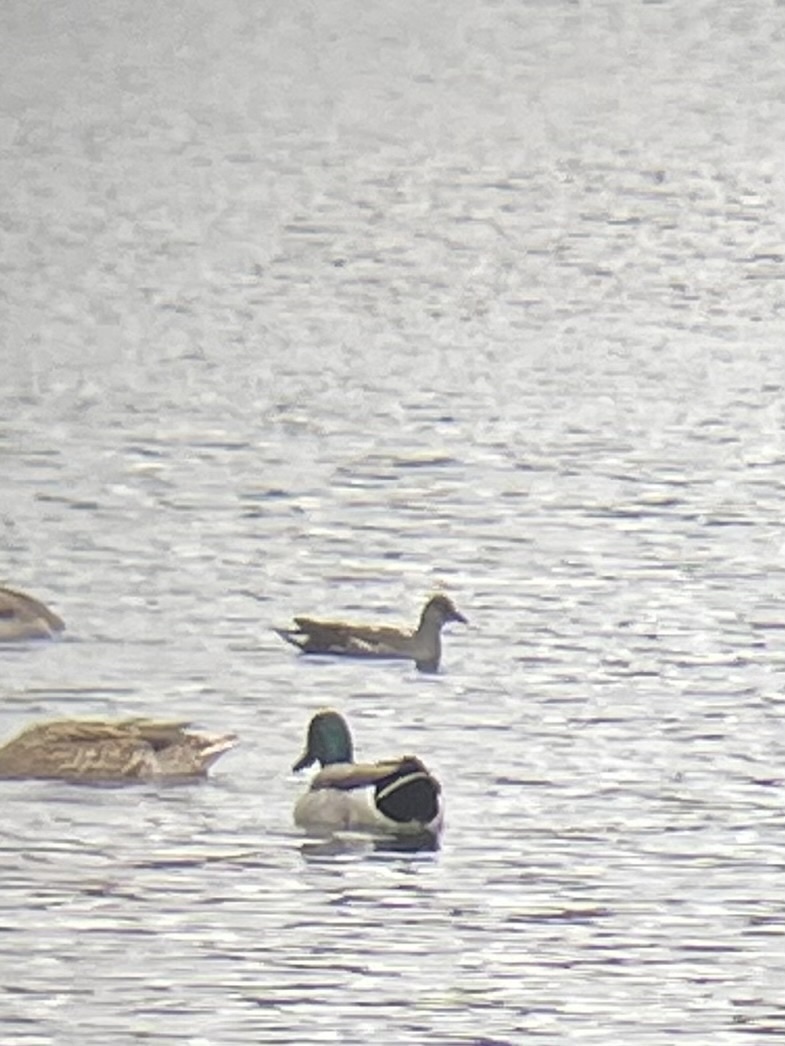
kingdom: Animalia
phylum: Chordata
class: Aves
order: Gruiformes
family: Rallidae
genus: Gallinula
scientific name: Gallinula chloropus
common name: Common moorhen
